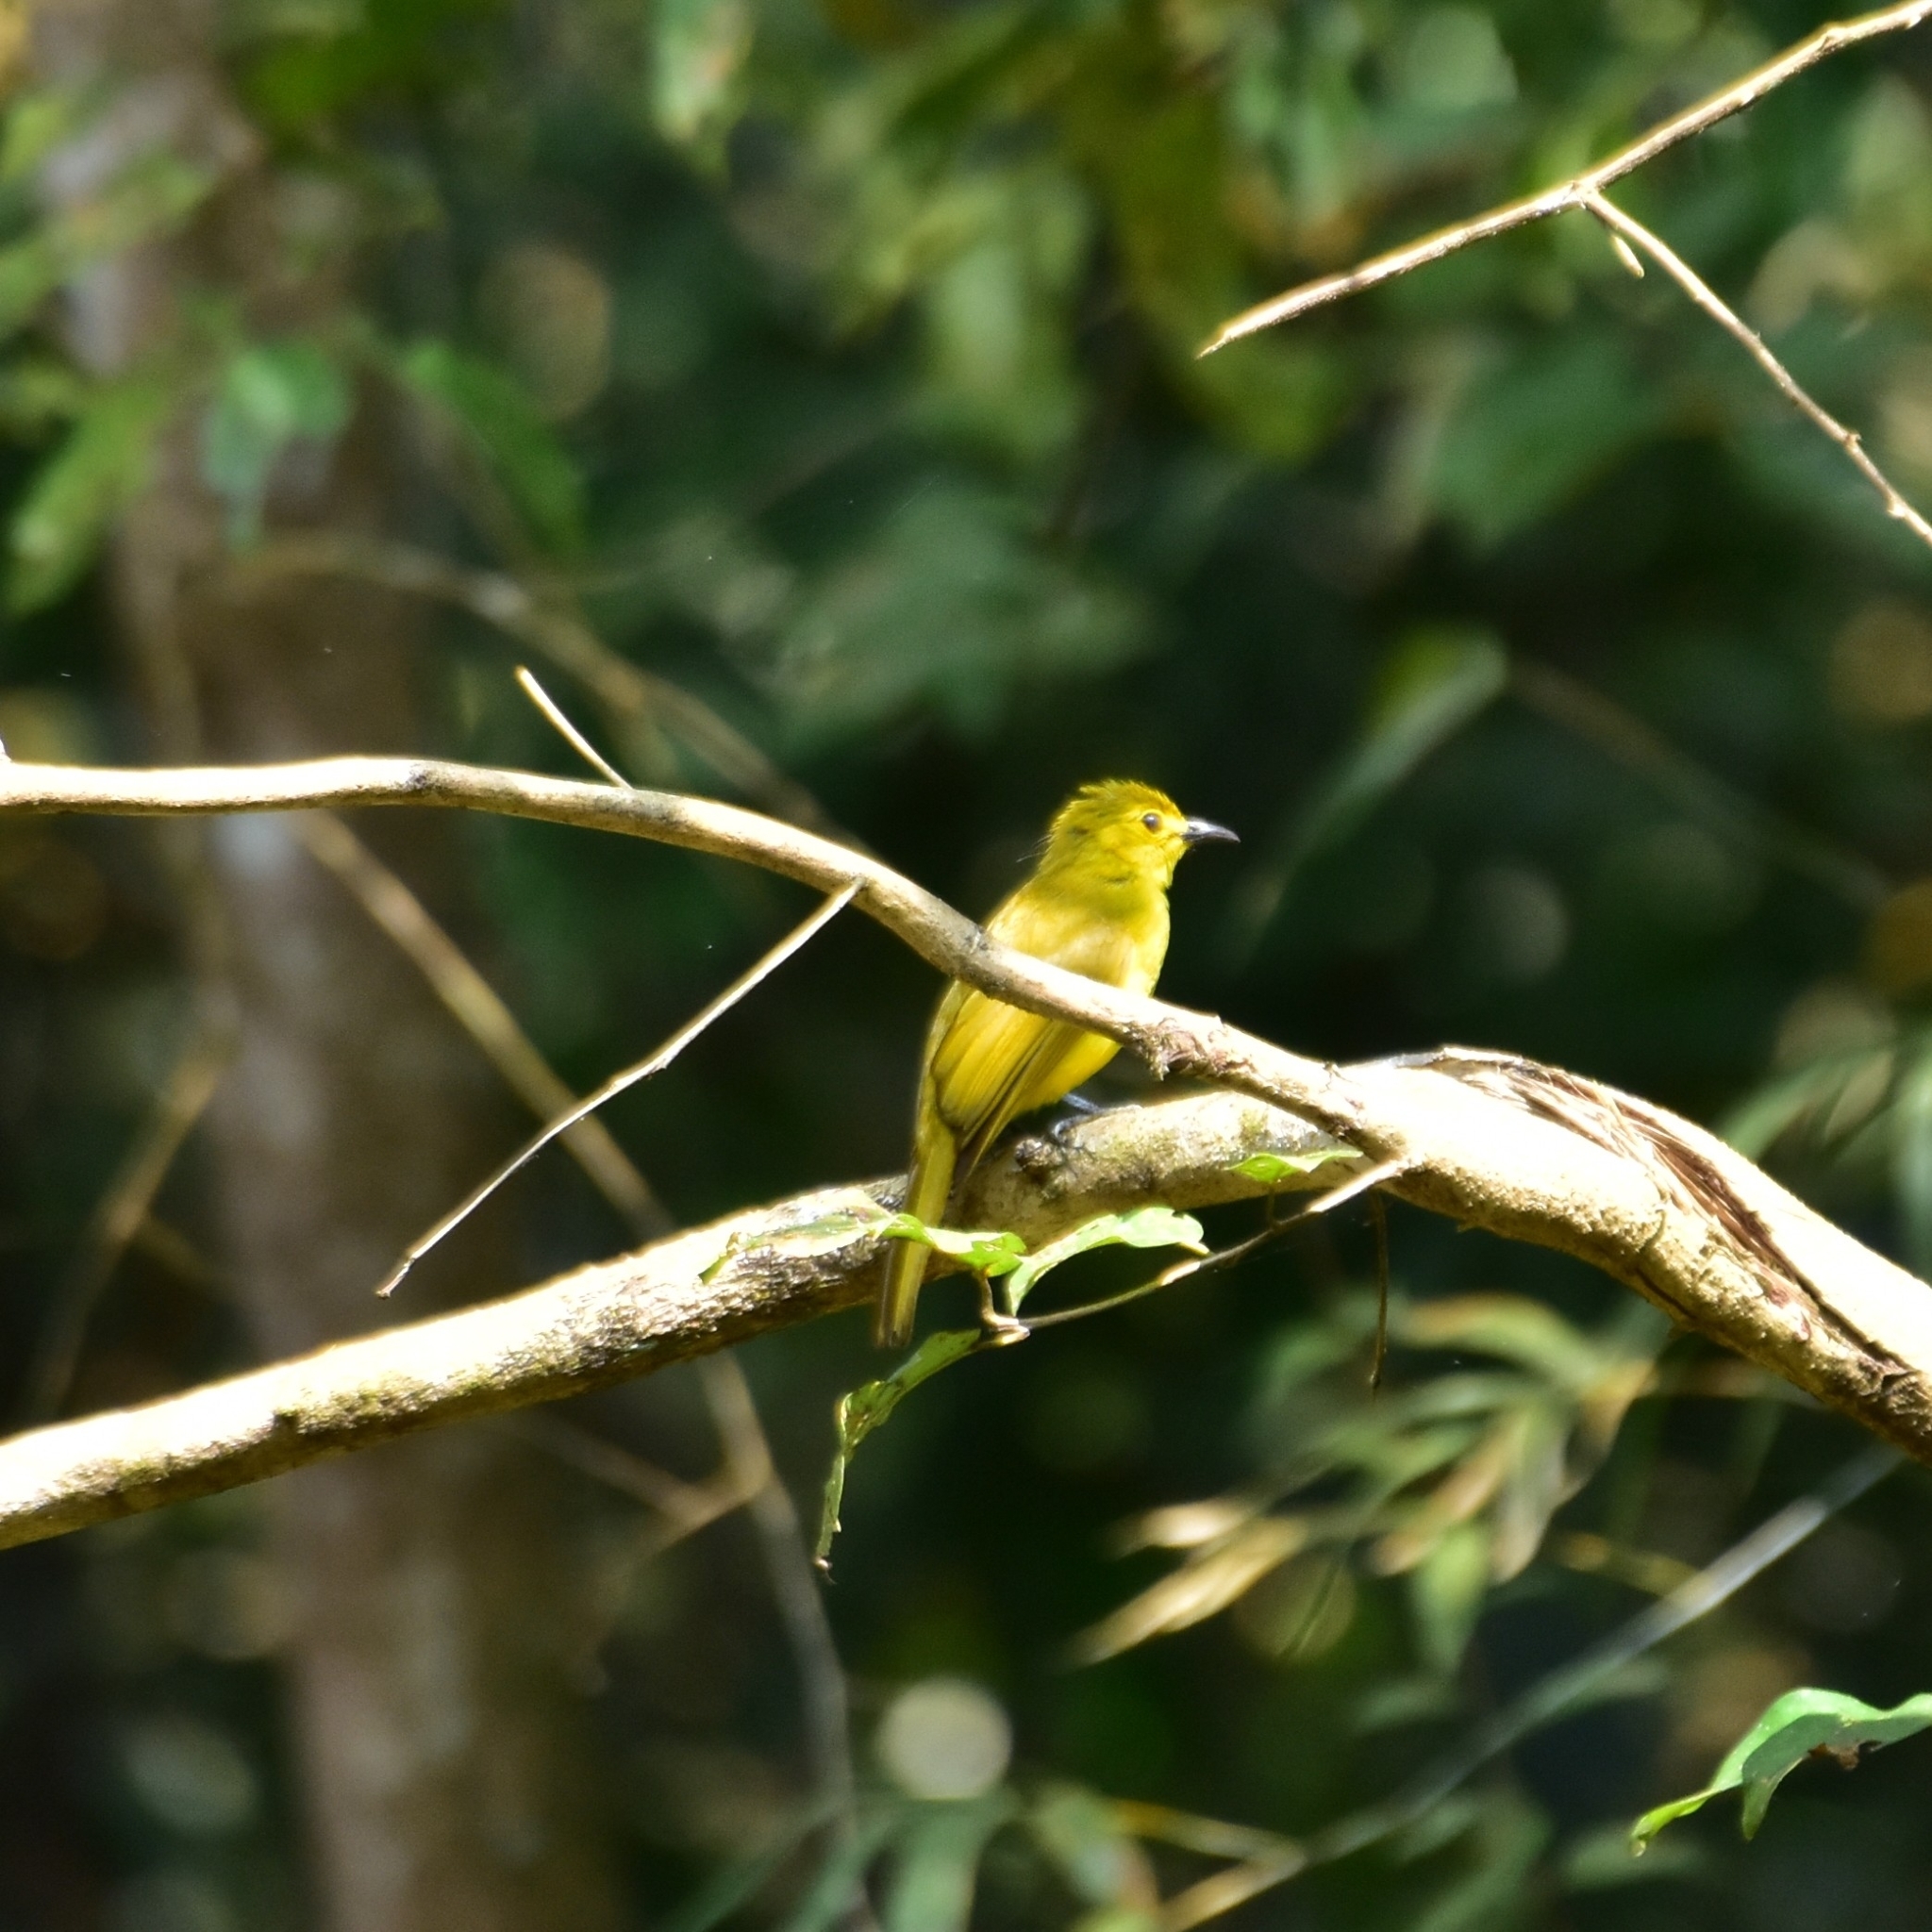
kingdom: Animalia
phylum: Chordata
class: Aves
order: Passeriformes
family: Pycnonotidae
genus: Acritillas
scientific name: Acritillas indica
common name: Yellow-browed bulbul
